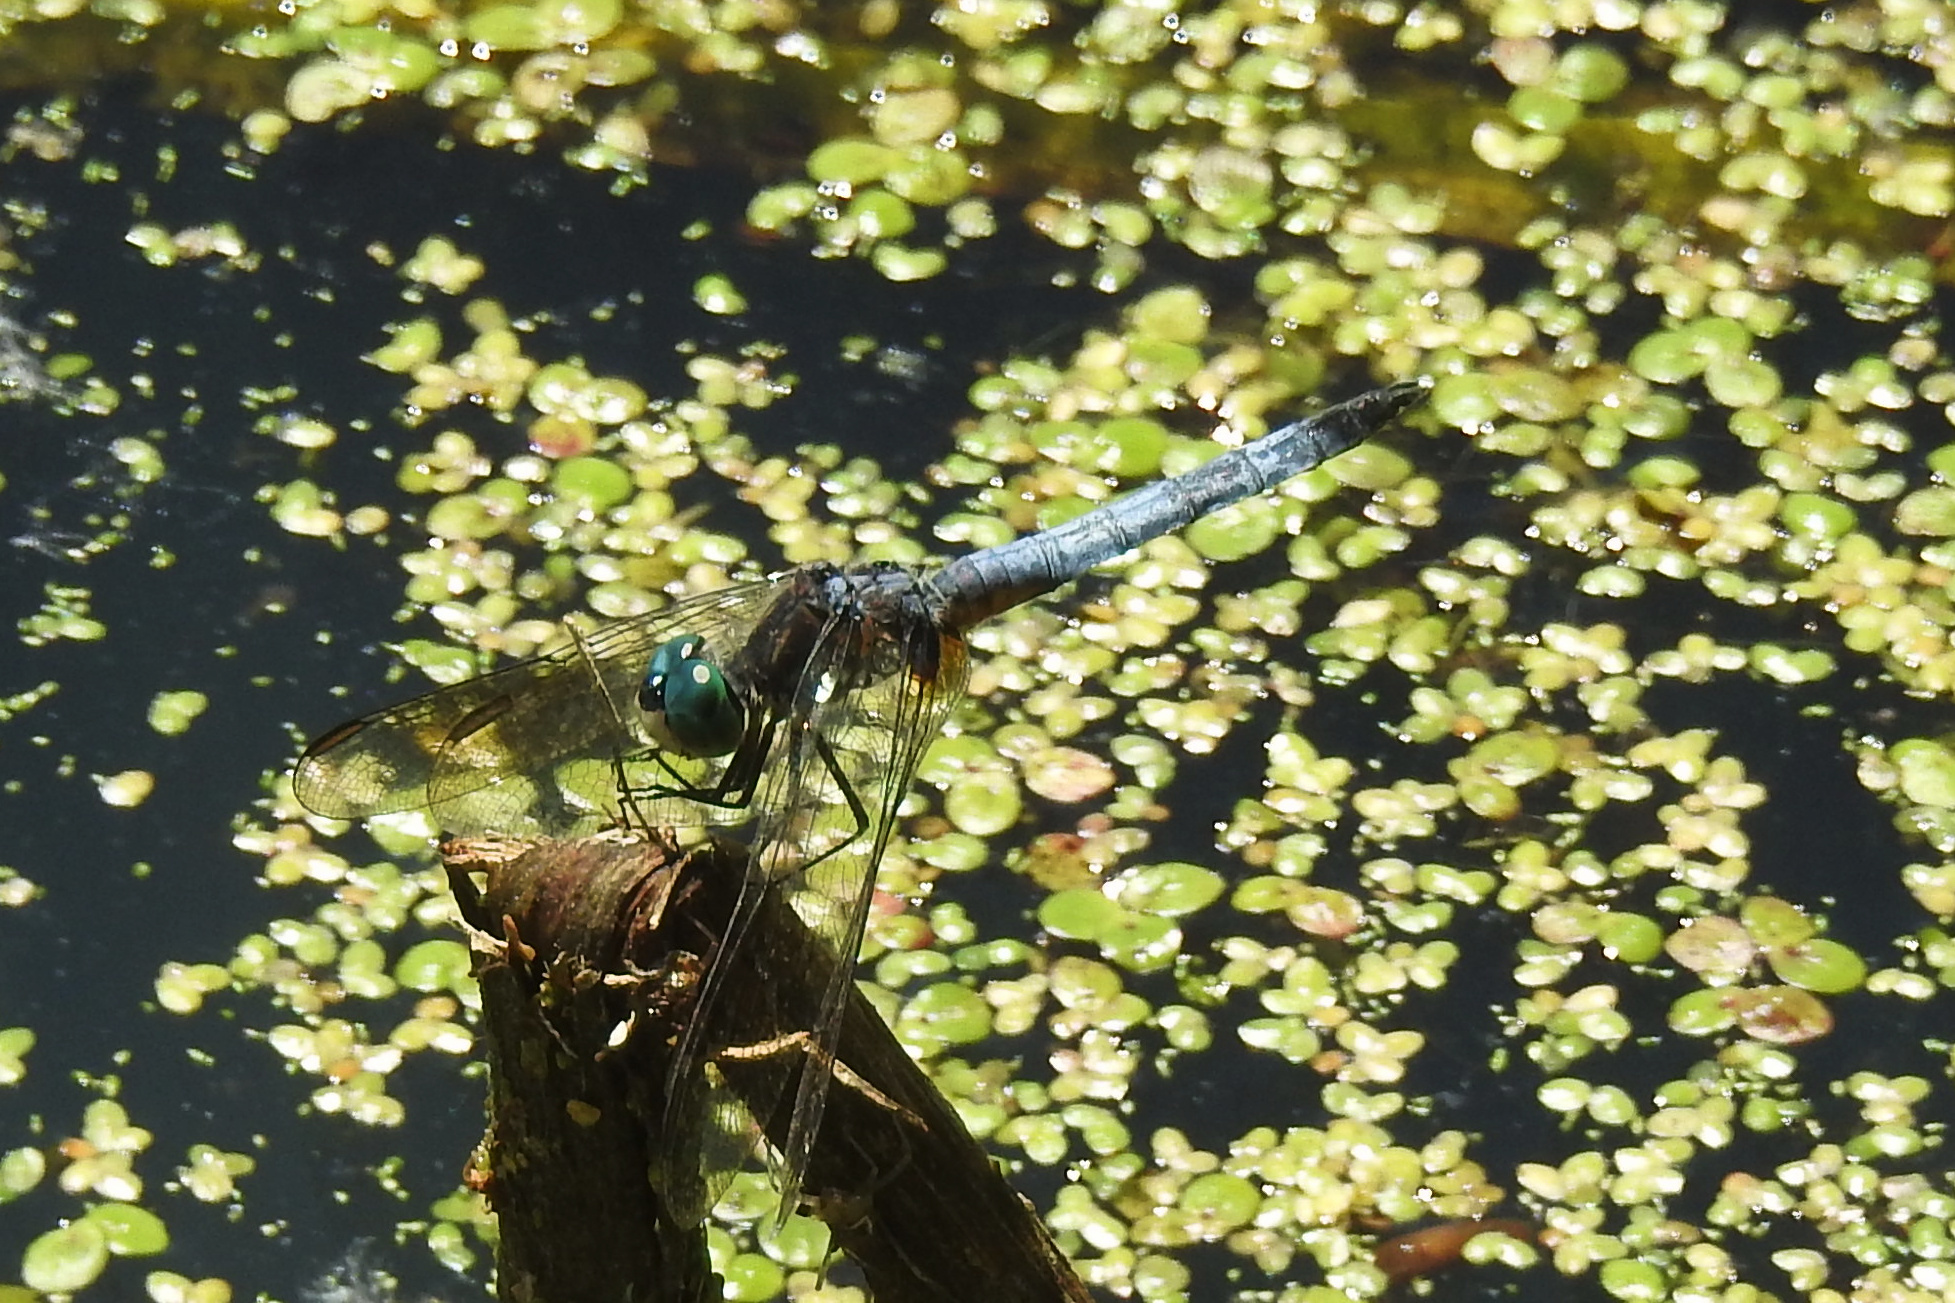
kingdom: Animalia
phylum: Arthropoda
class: Insecta
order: Odonata
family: Libellulidae
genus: Pachydiplax
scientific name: Pachydiplax longipennis
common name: Blue dasher
